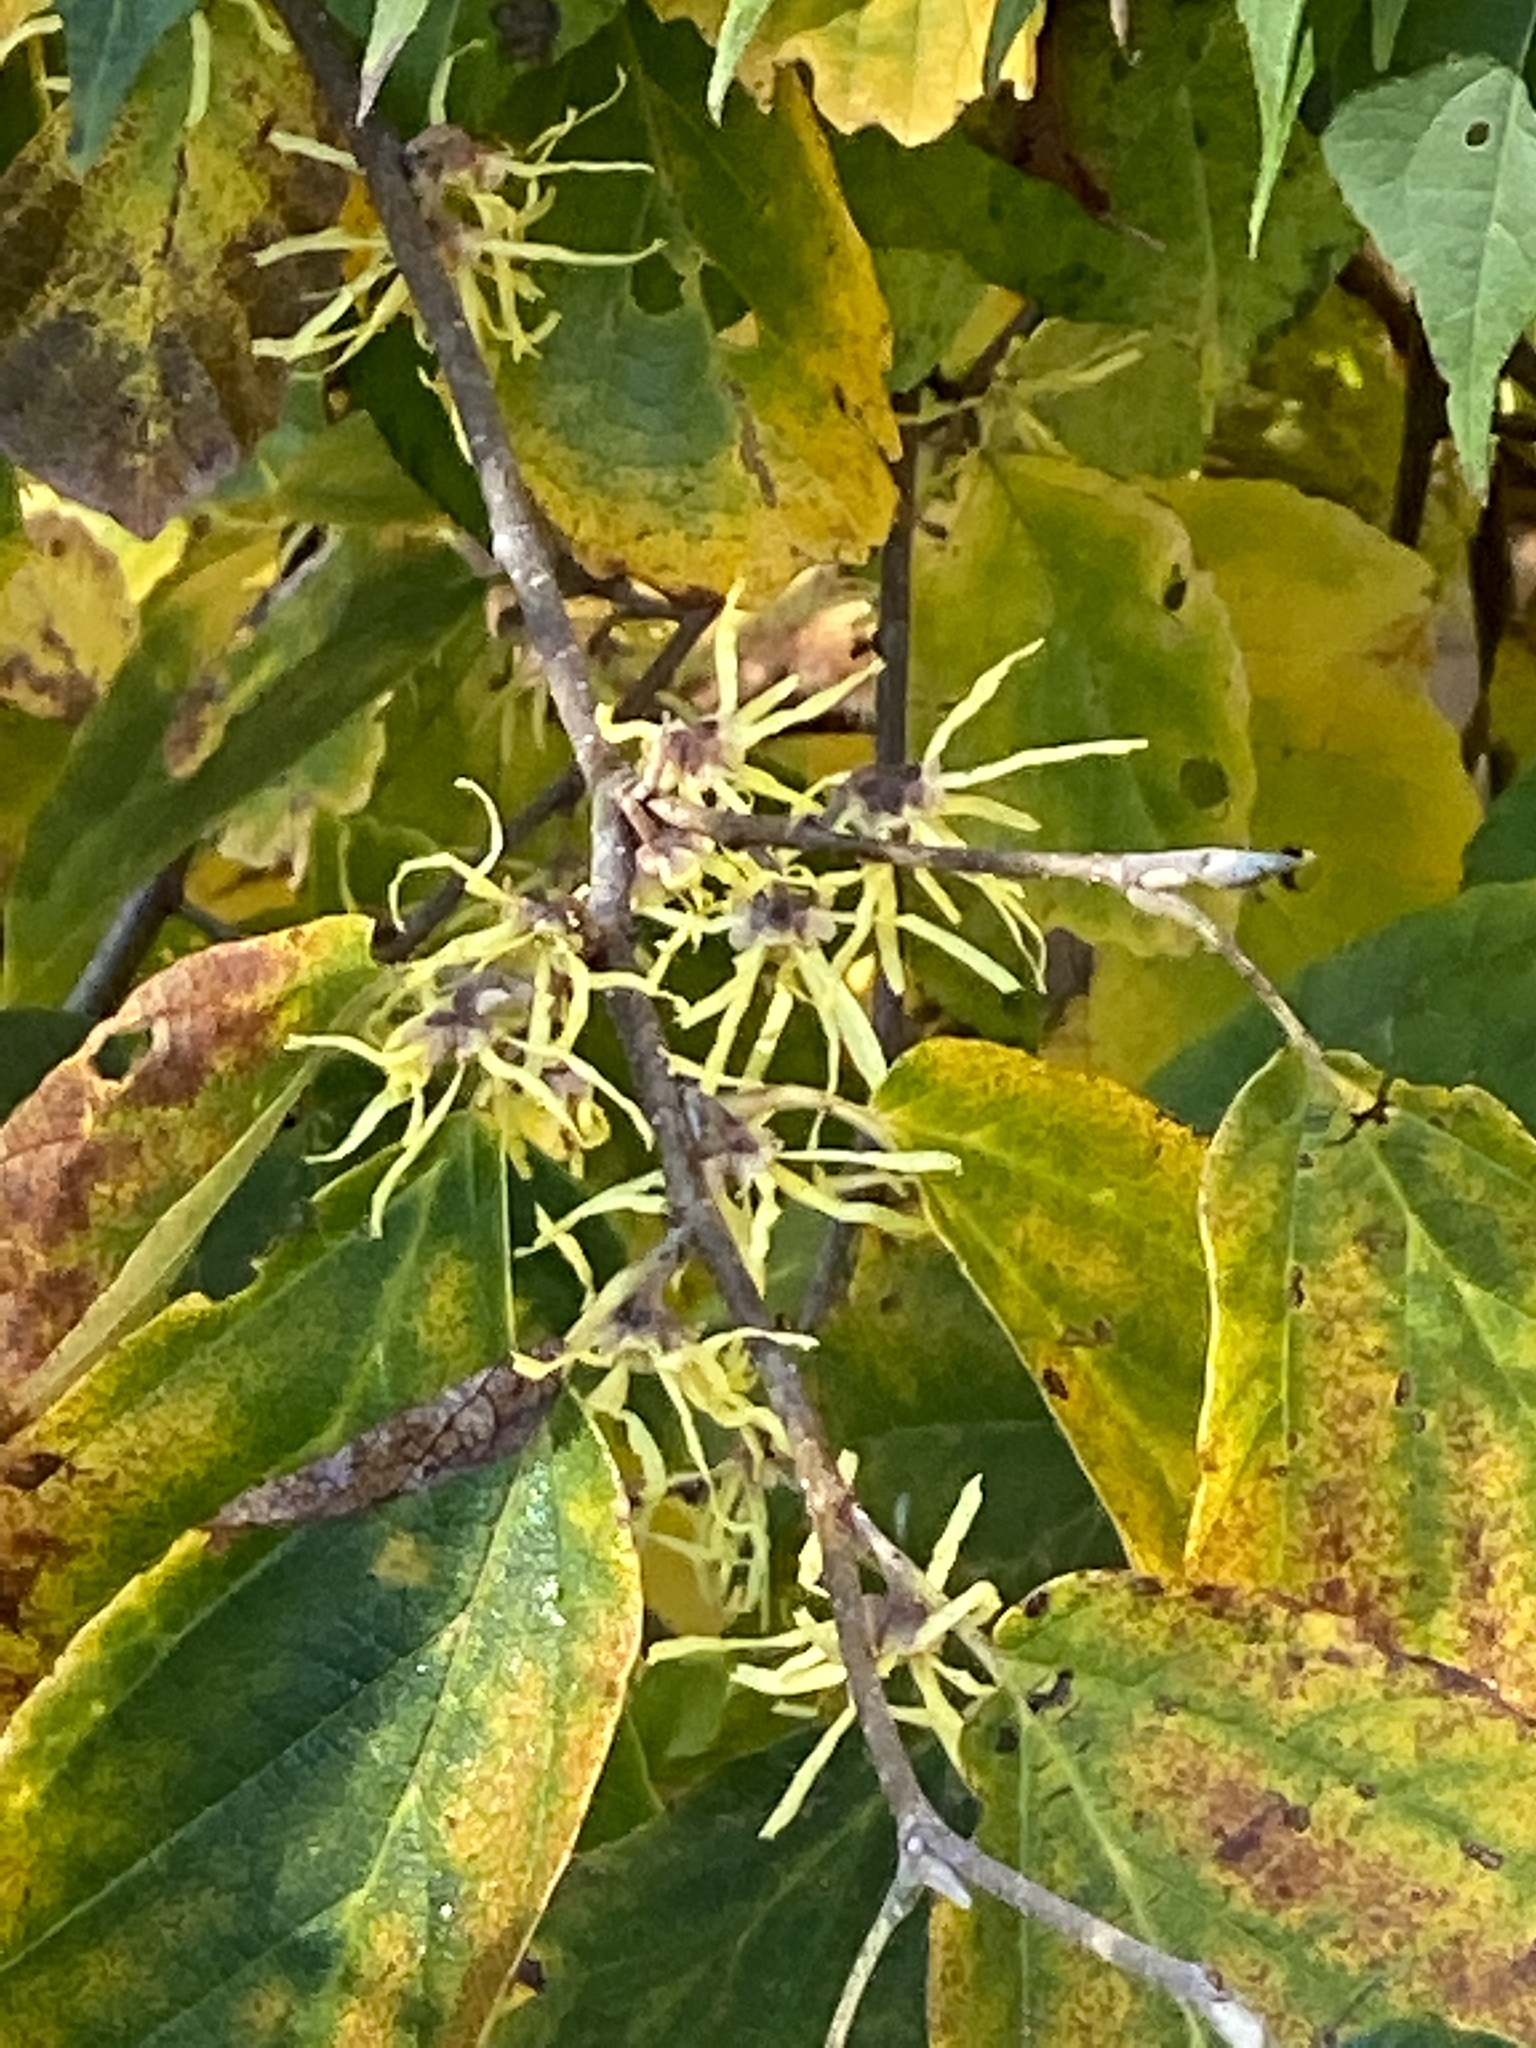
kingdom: Plantae
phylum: Tracheophyta
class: Magnoliopsida
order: Saxifragales
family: Hamamelidaceae
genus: Hamamelis
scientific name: Hamamelis virginiana
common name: Witch-hazel
